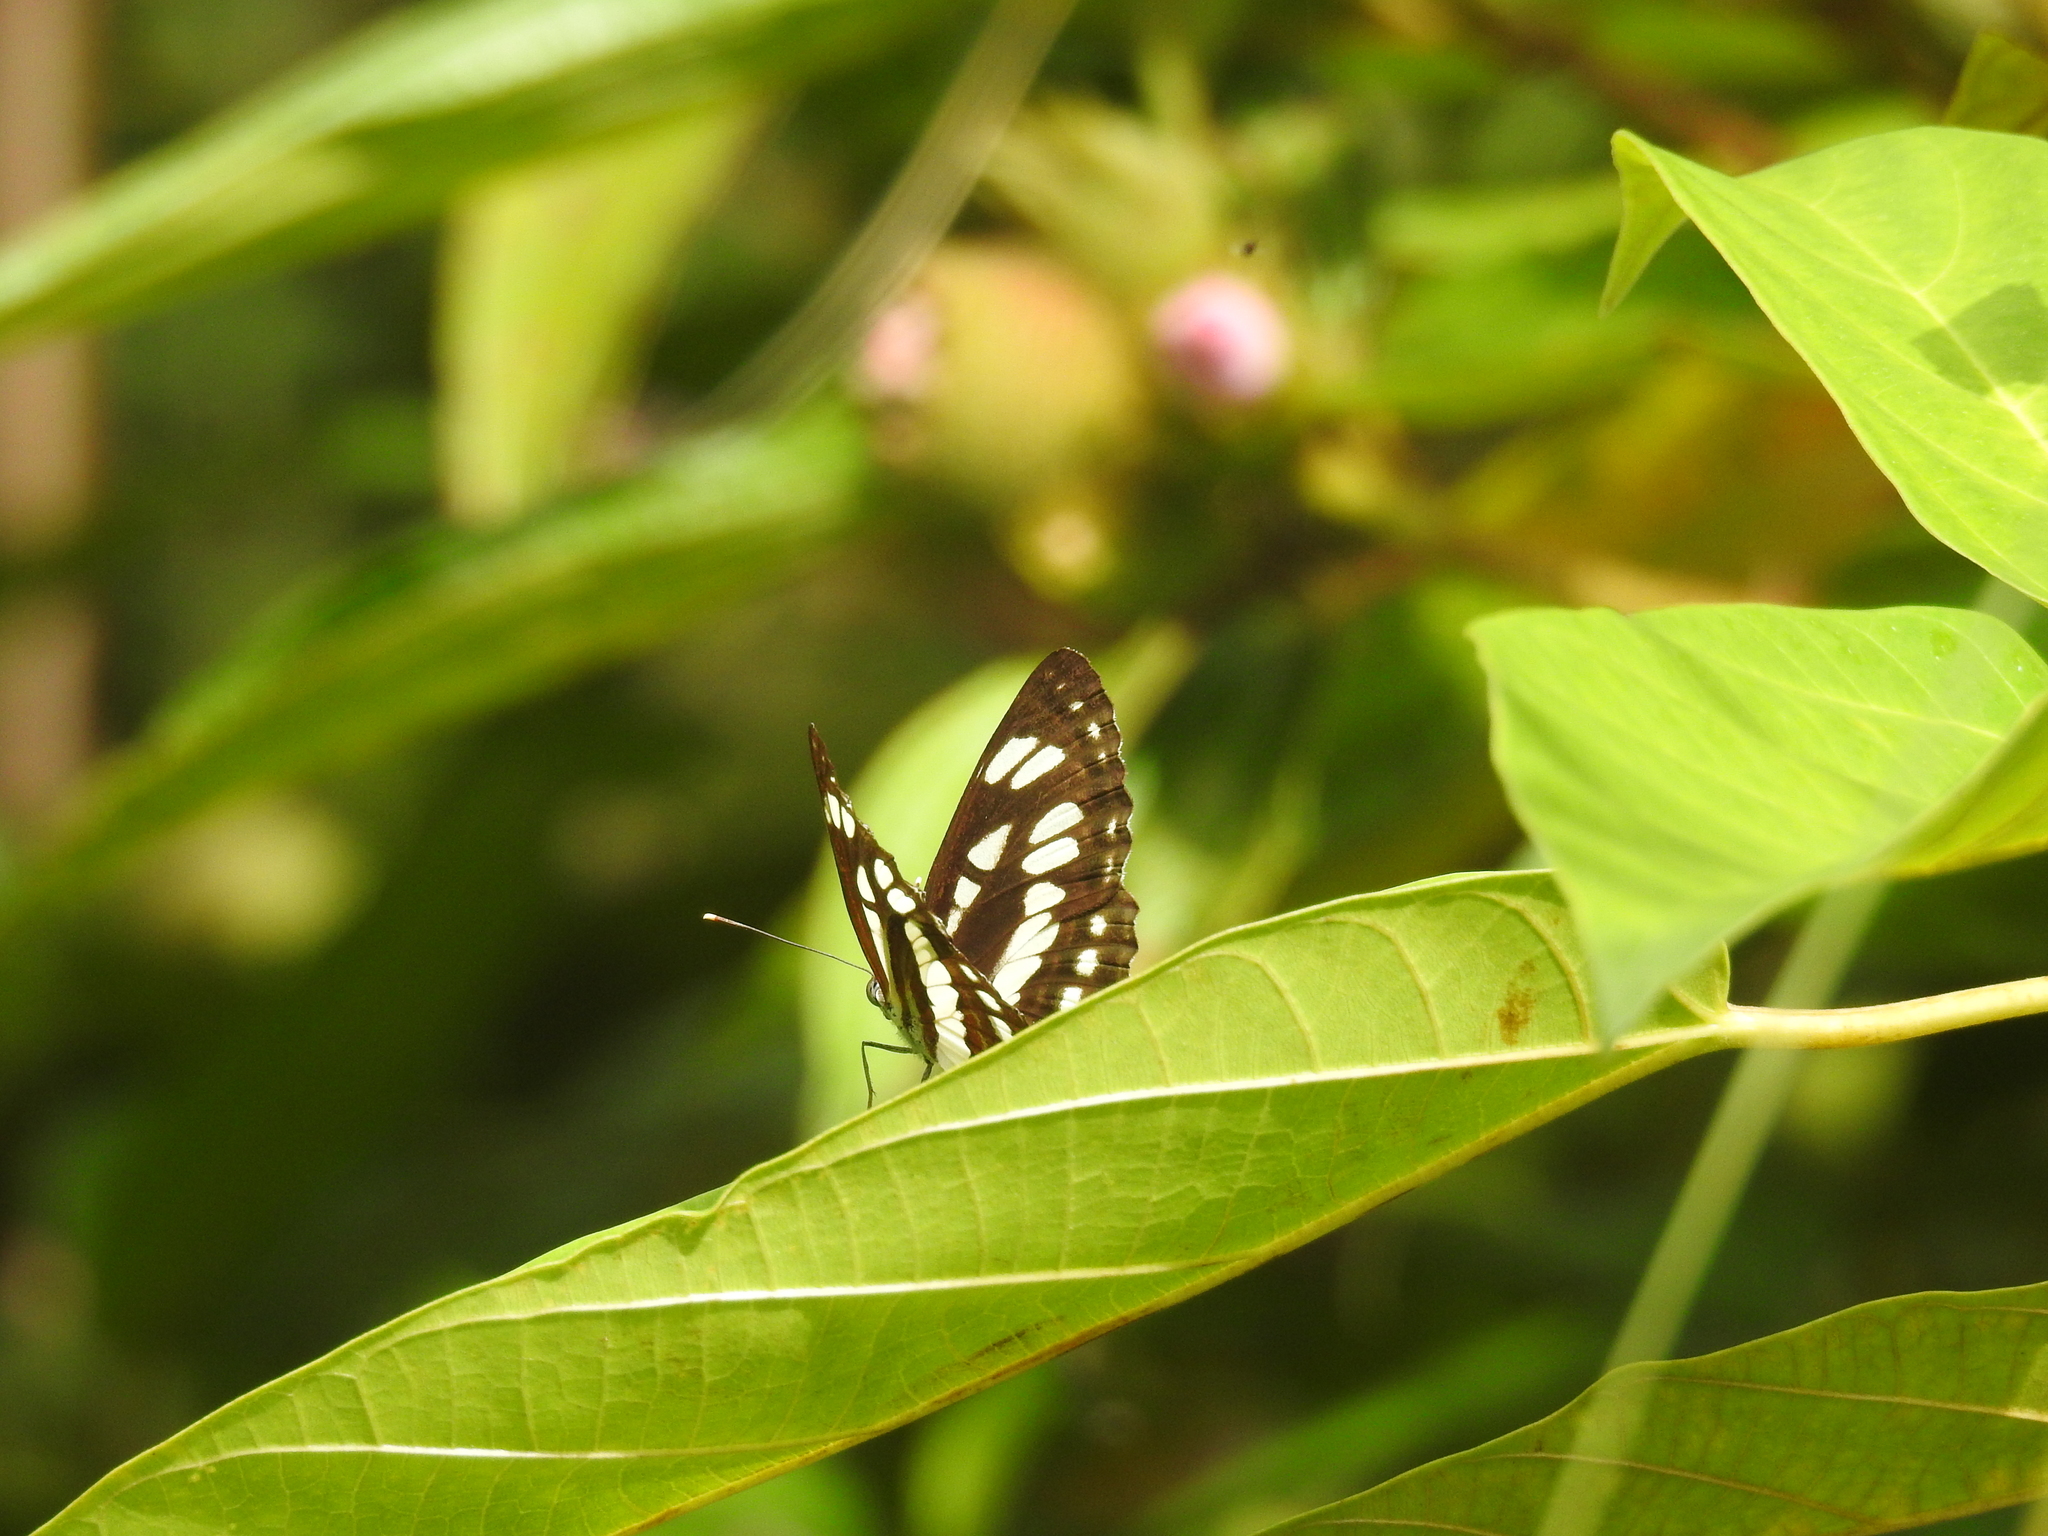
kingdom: Animalia
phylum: Arthropoda
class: Insecta
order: Lepidoptera
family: Nymphalidae
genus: Neptis
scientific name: Neptis hylas
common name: Common sailer
